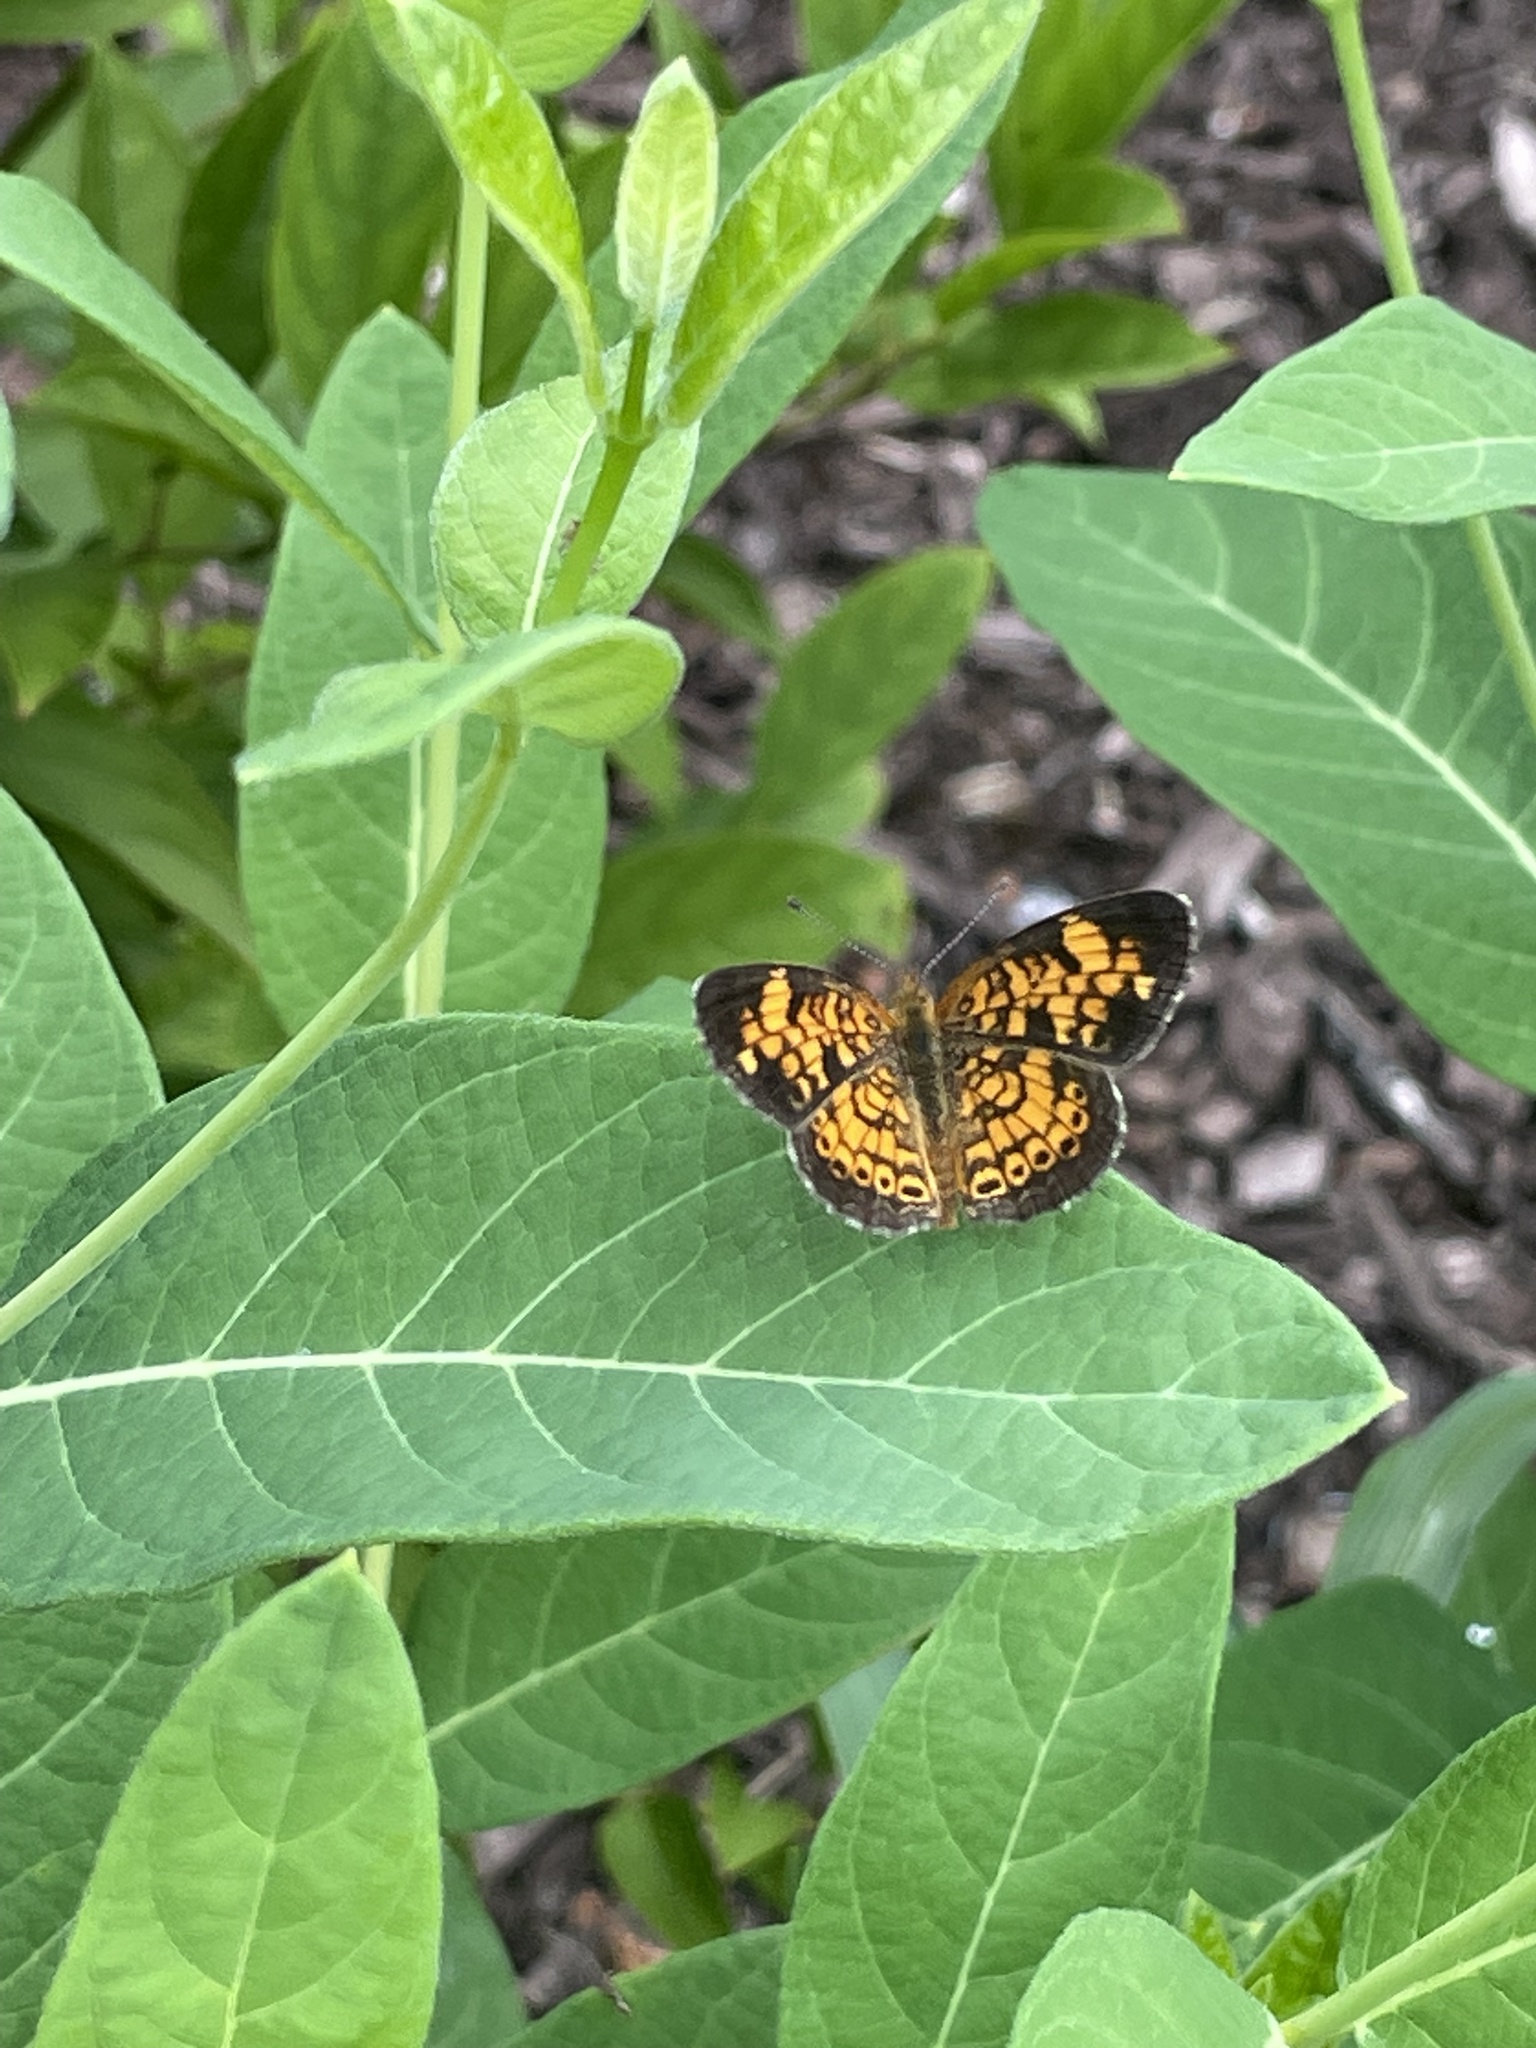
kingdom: Animalia
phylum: Arthropoda
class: Insecta
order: Lepidoptera
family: Nymphalidae
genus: Phyciodes
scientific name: Phyciodes tharos
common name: Pearl crescent
